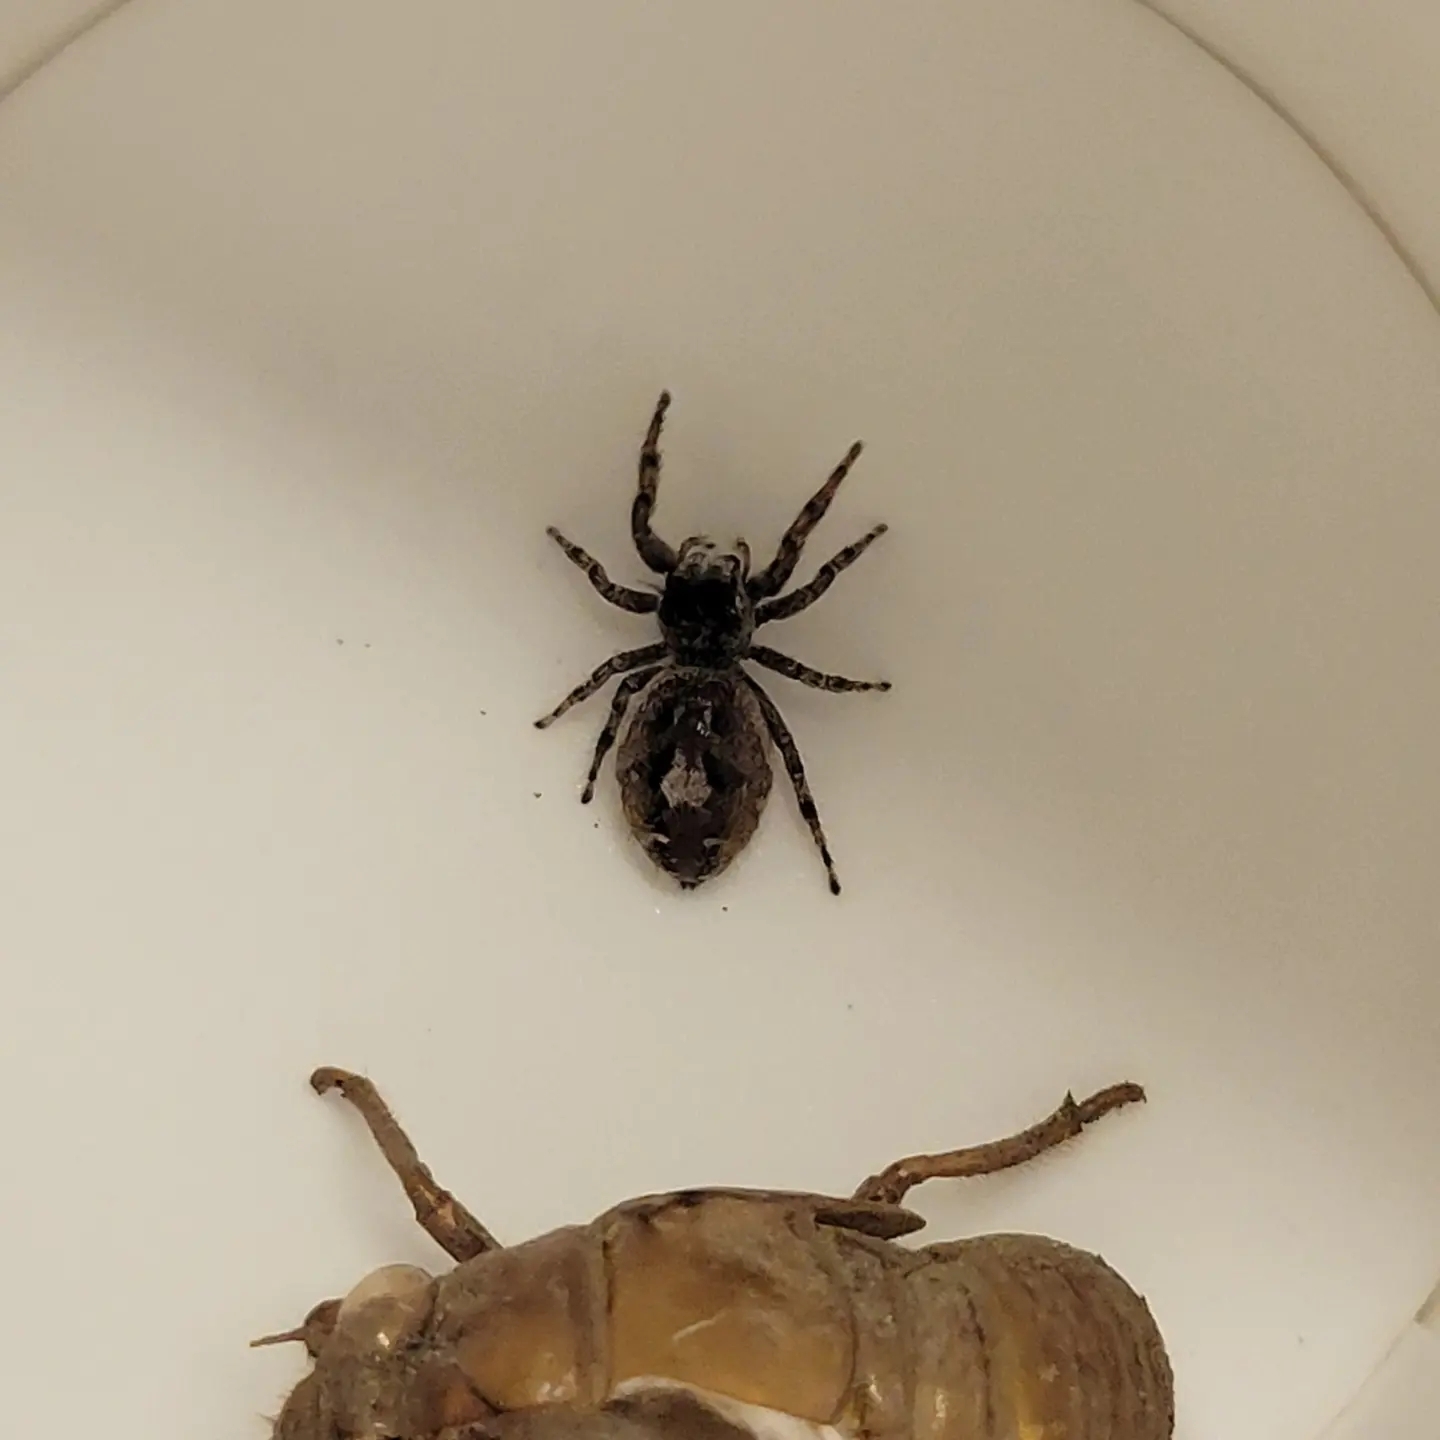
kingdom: Animalia
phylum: Arthropoda
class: Arachnida
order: Araneae
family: Salticidae
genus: Phidippus
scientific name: Phidippus putnami
